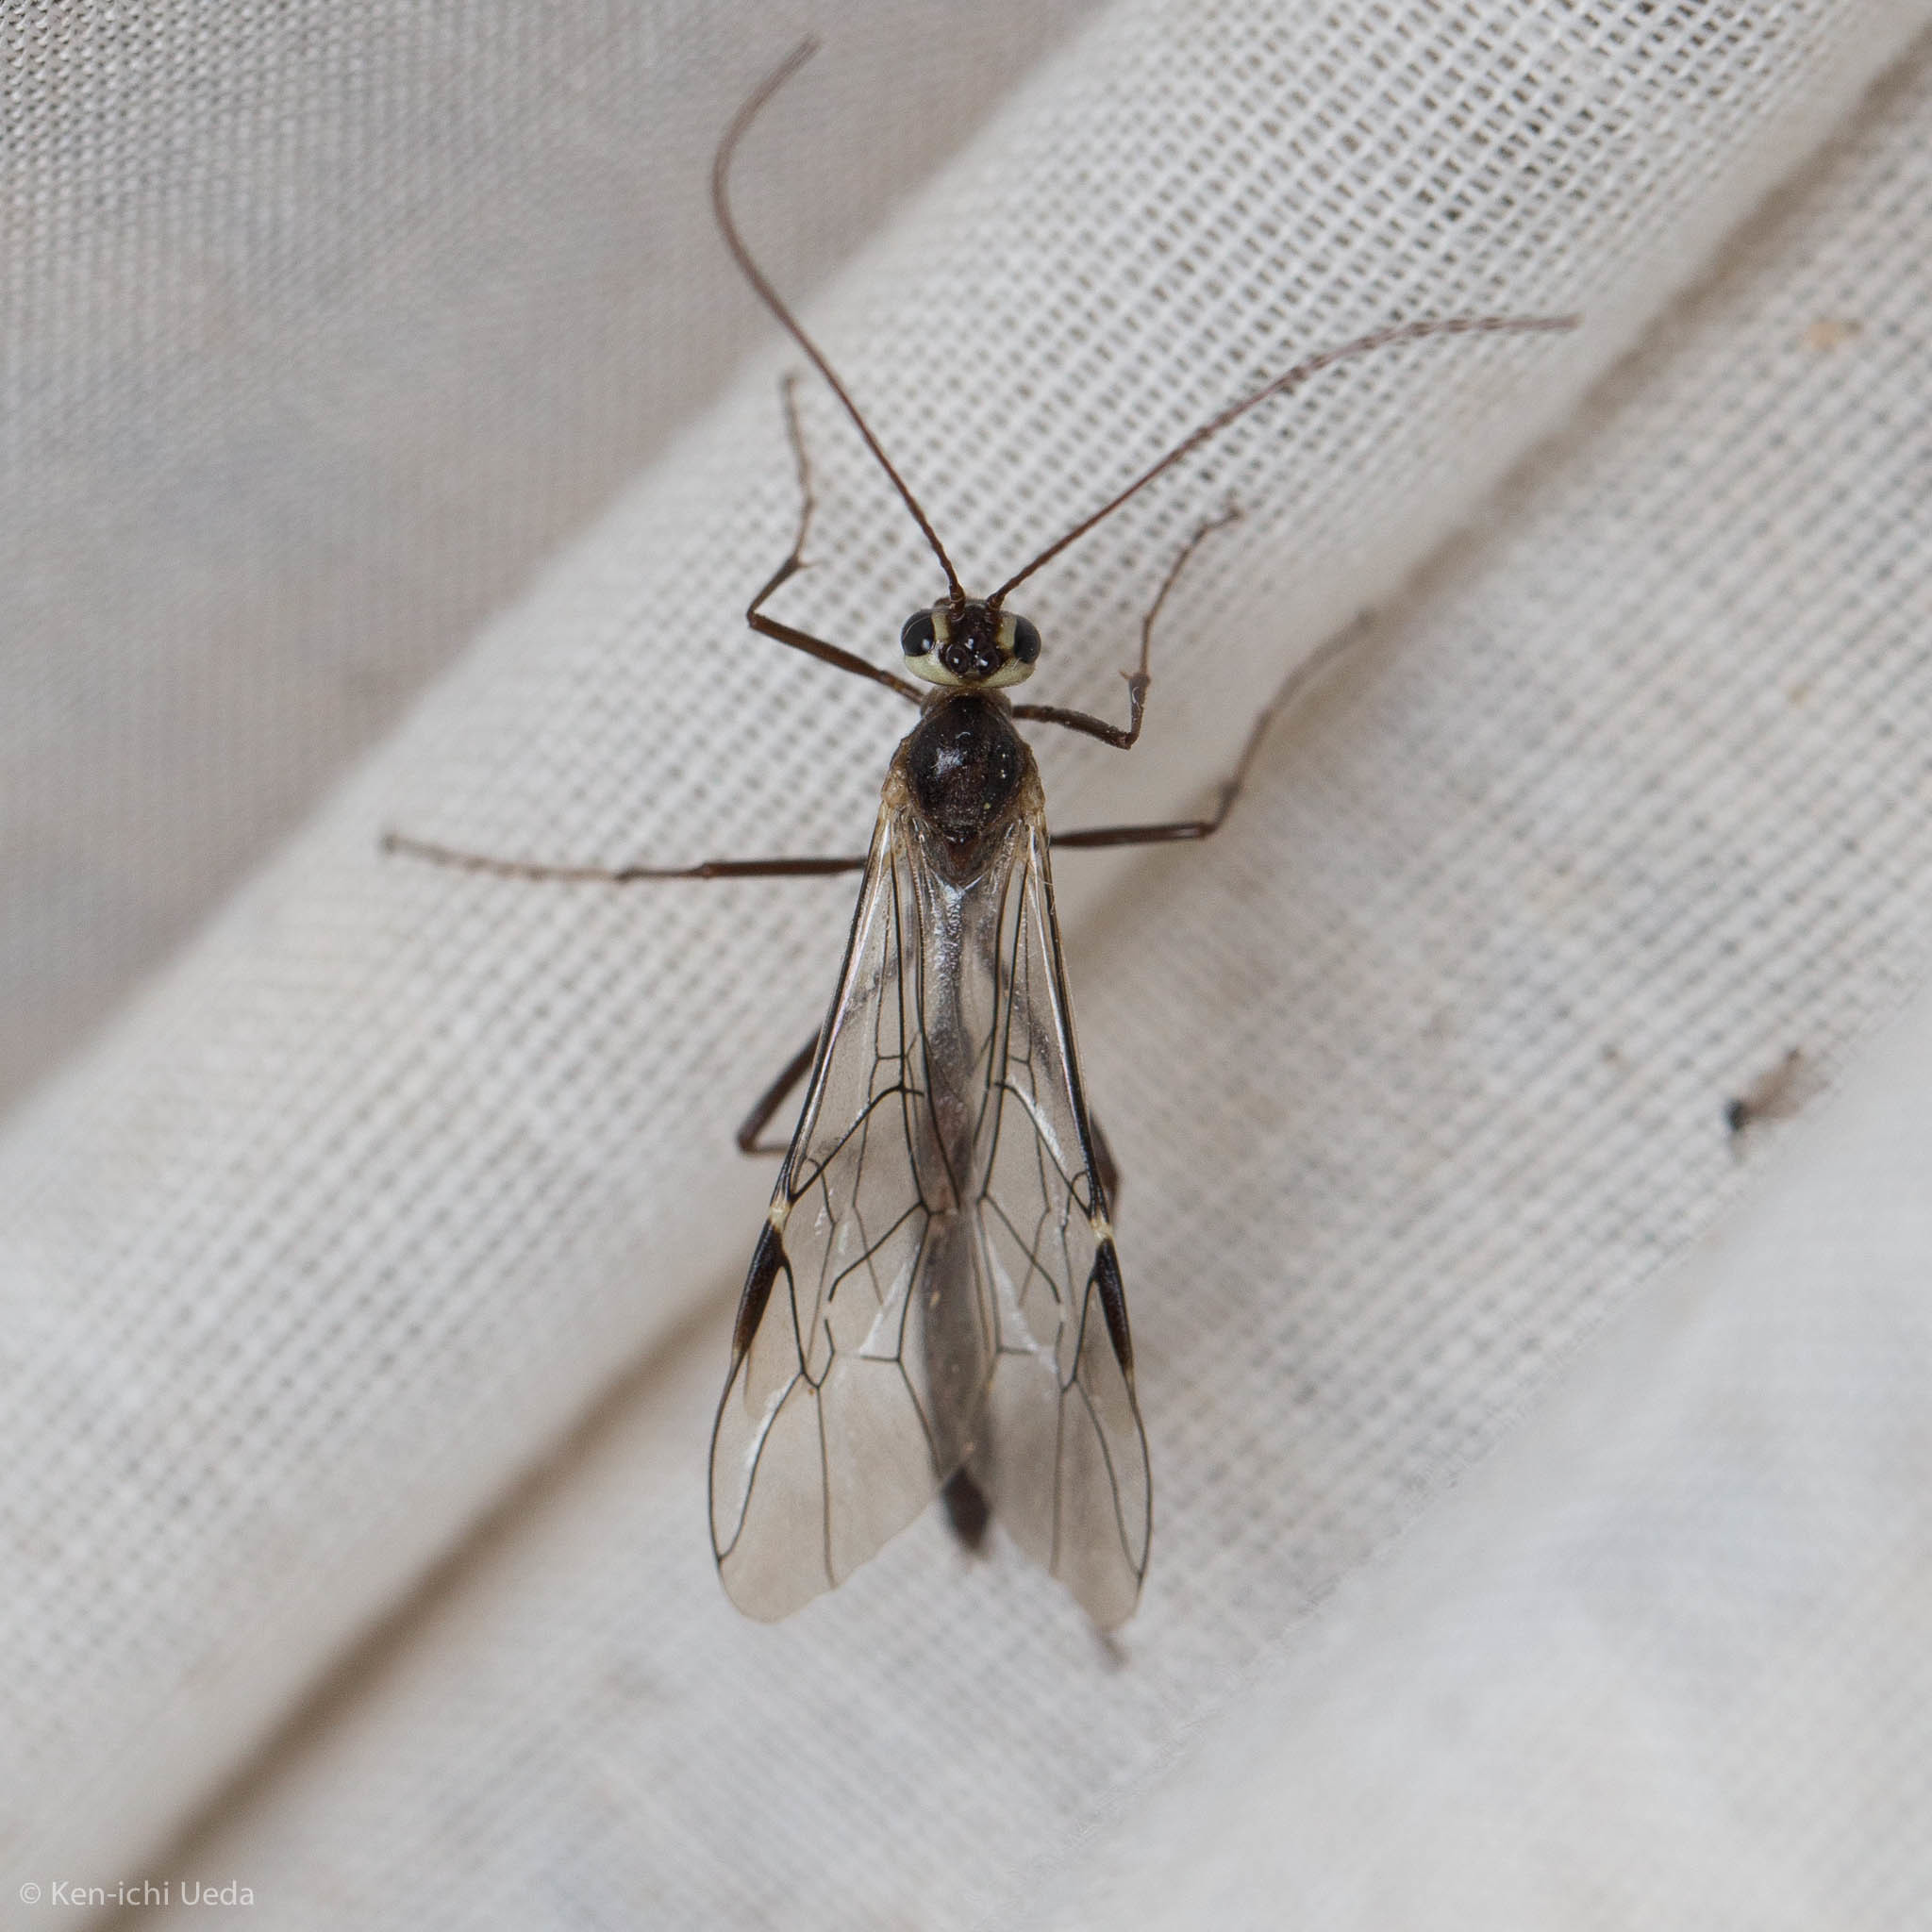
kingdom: Animalia
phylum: Arthropoda
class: Insecta
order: Hymenoptera
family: Ichneumonidae
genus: Simophion
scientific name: Simophion excarinatus
